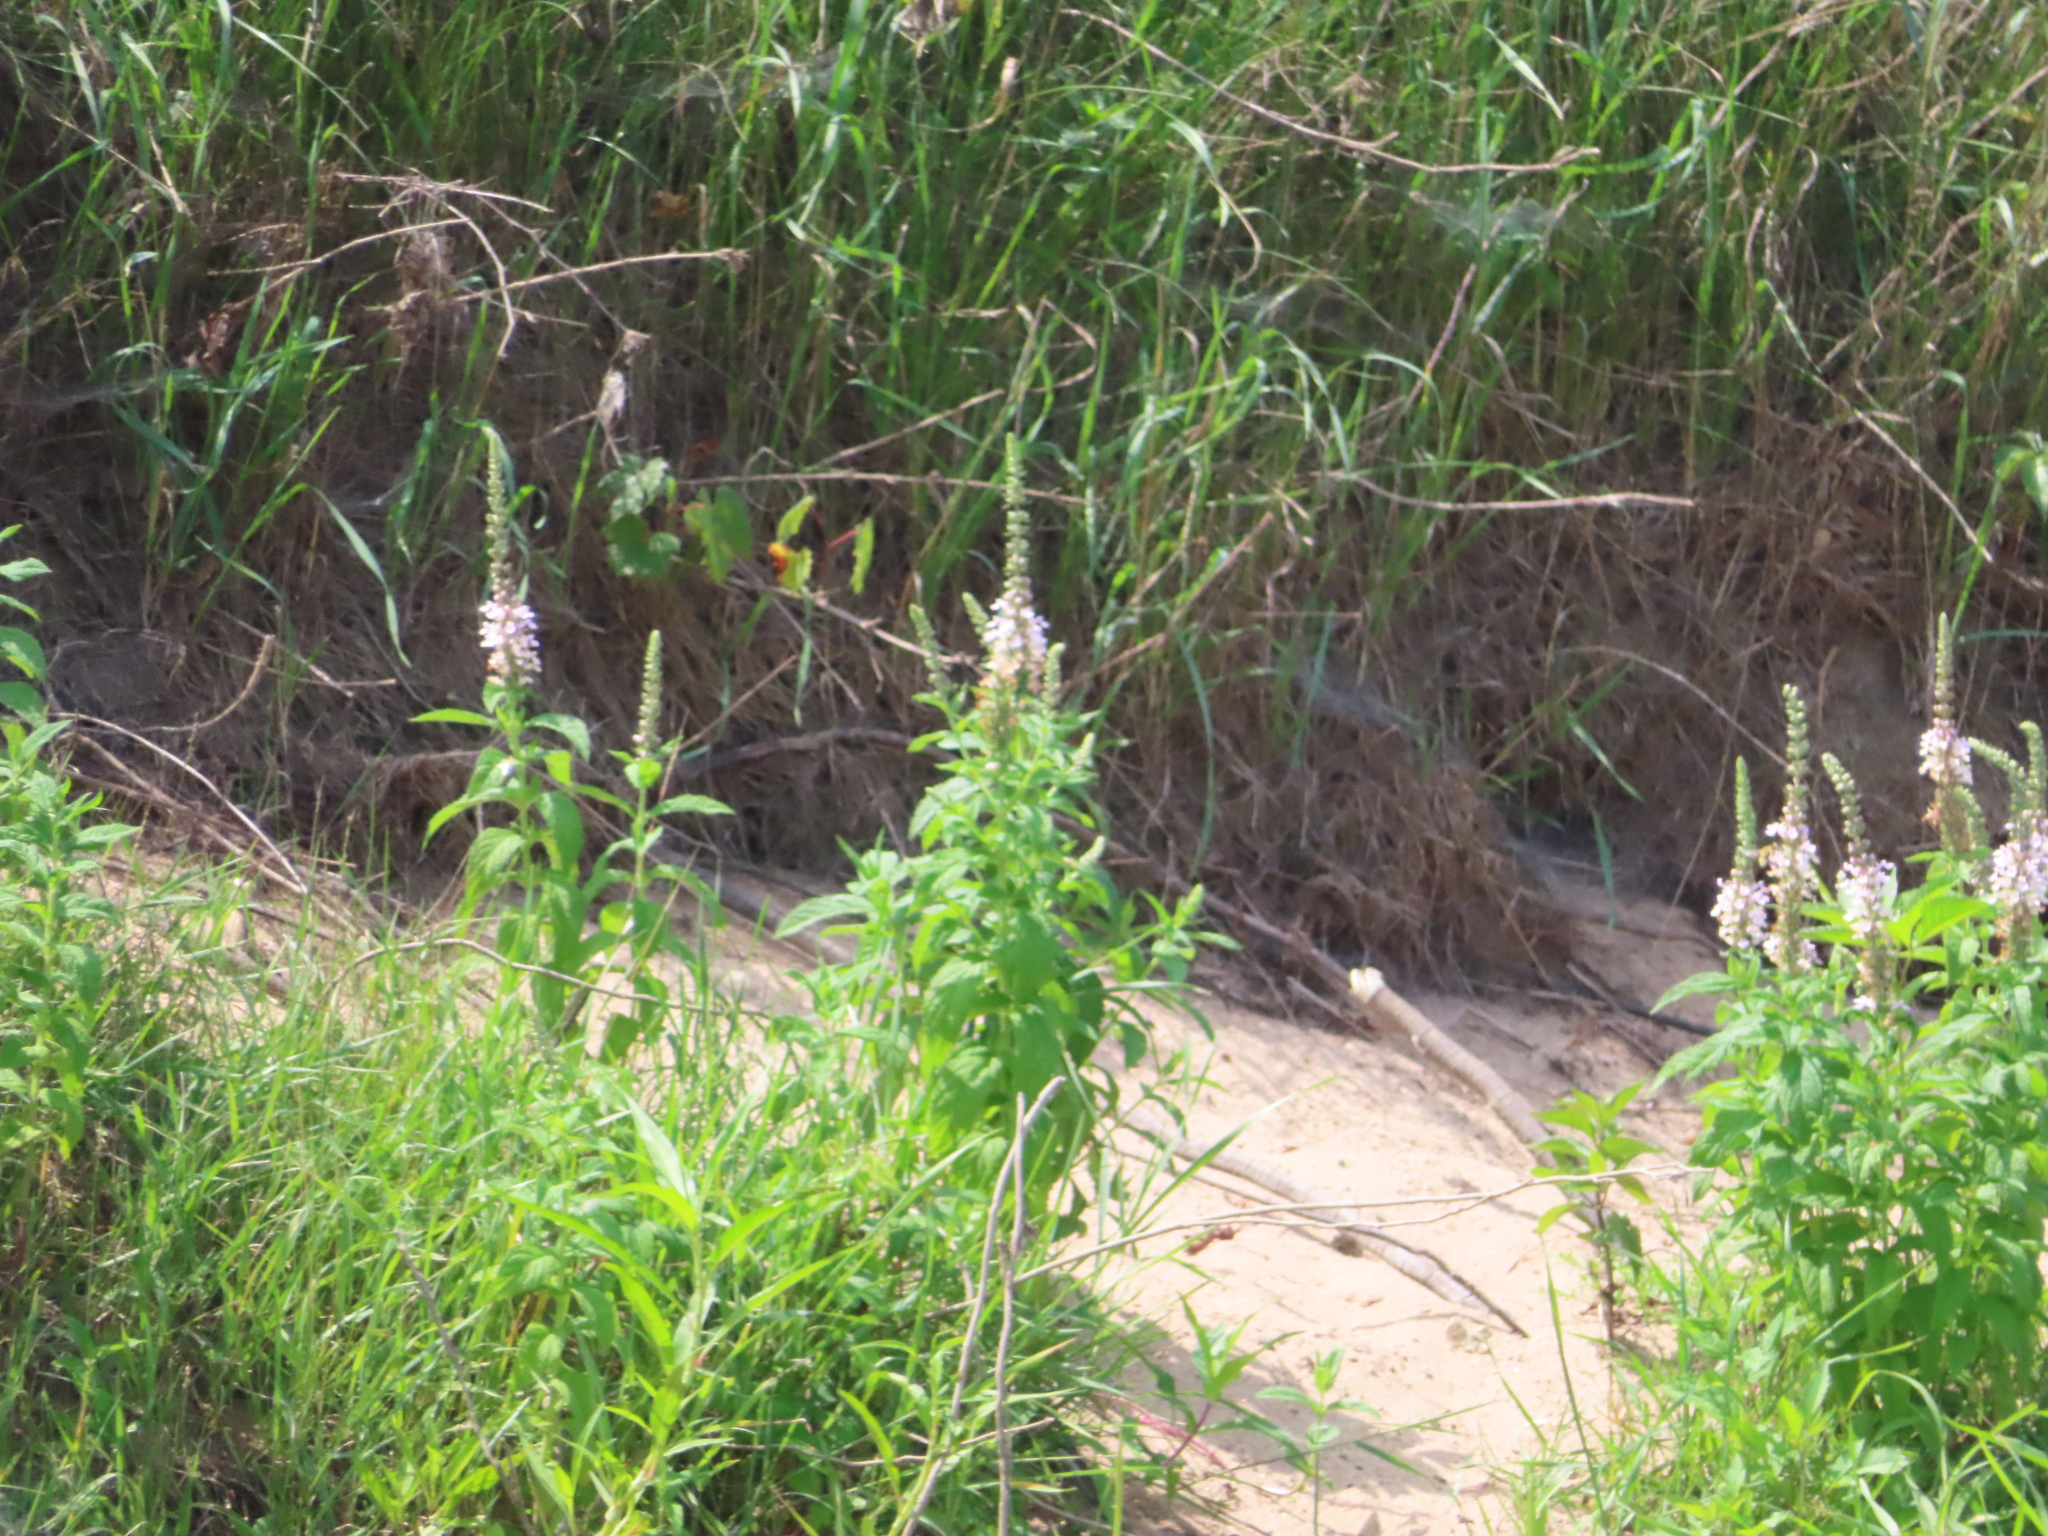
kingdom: Plantae
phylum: Tracheophyta
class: Magnoliopsida
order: Lamiales
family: Lamiaceae
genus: Teucrium
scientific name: Teucrium canadense
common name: American germander
